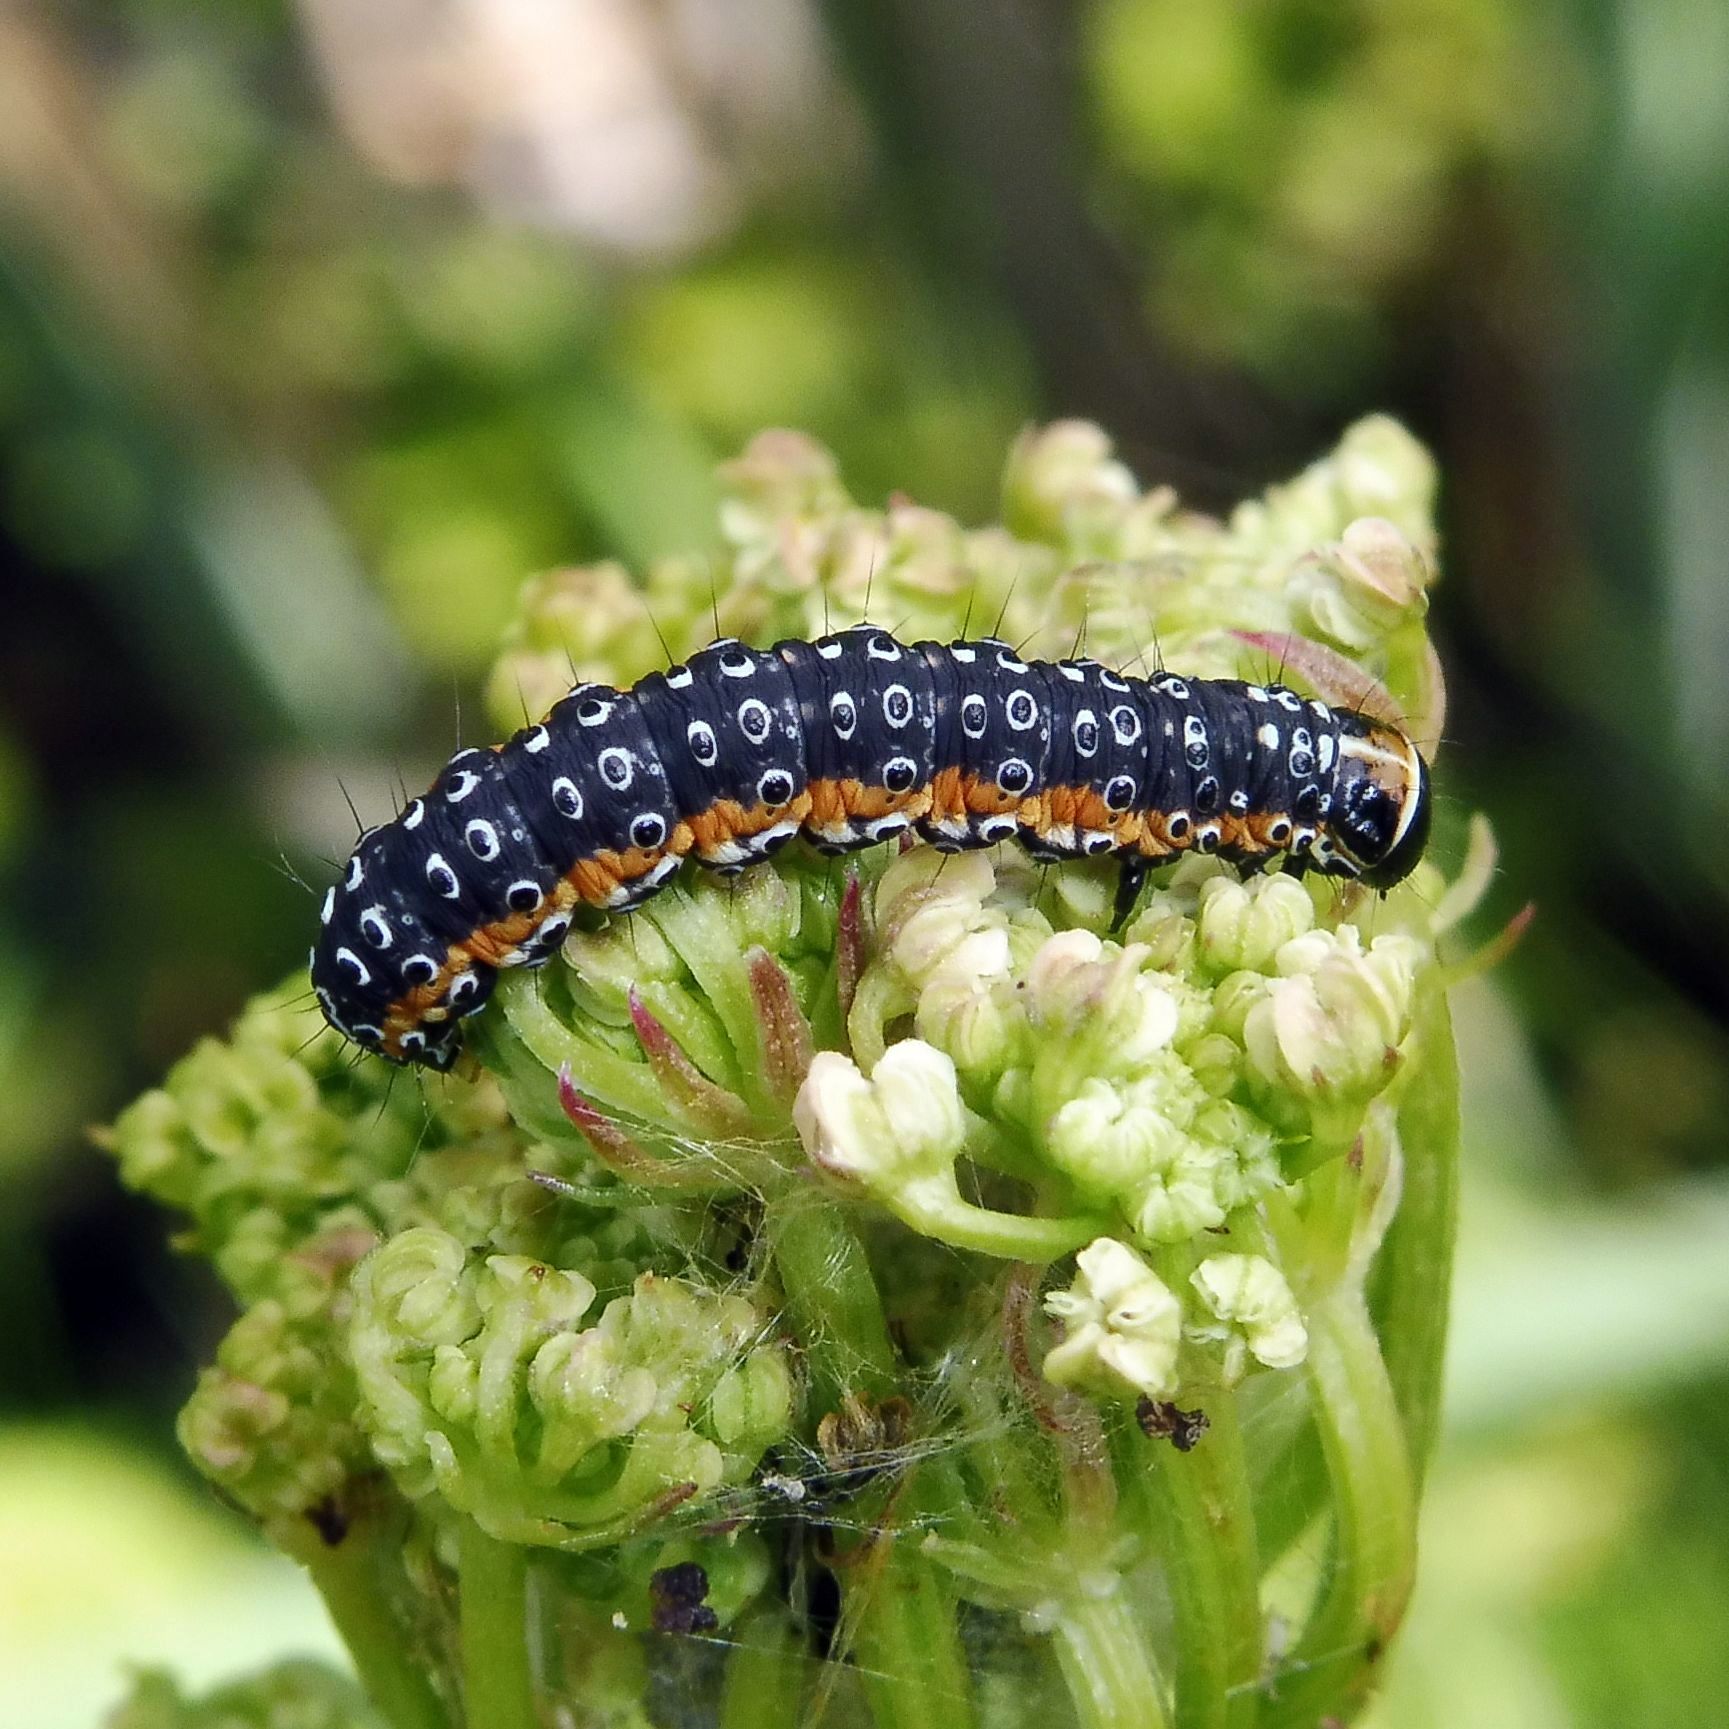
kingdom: Animalia
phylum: Arthropoda
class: Insecta
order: Lepidoptera
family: Depressariidae
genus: Depressaria
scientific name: Depressaria apiella
